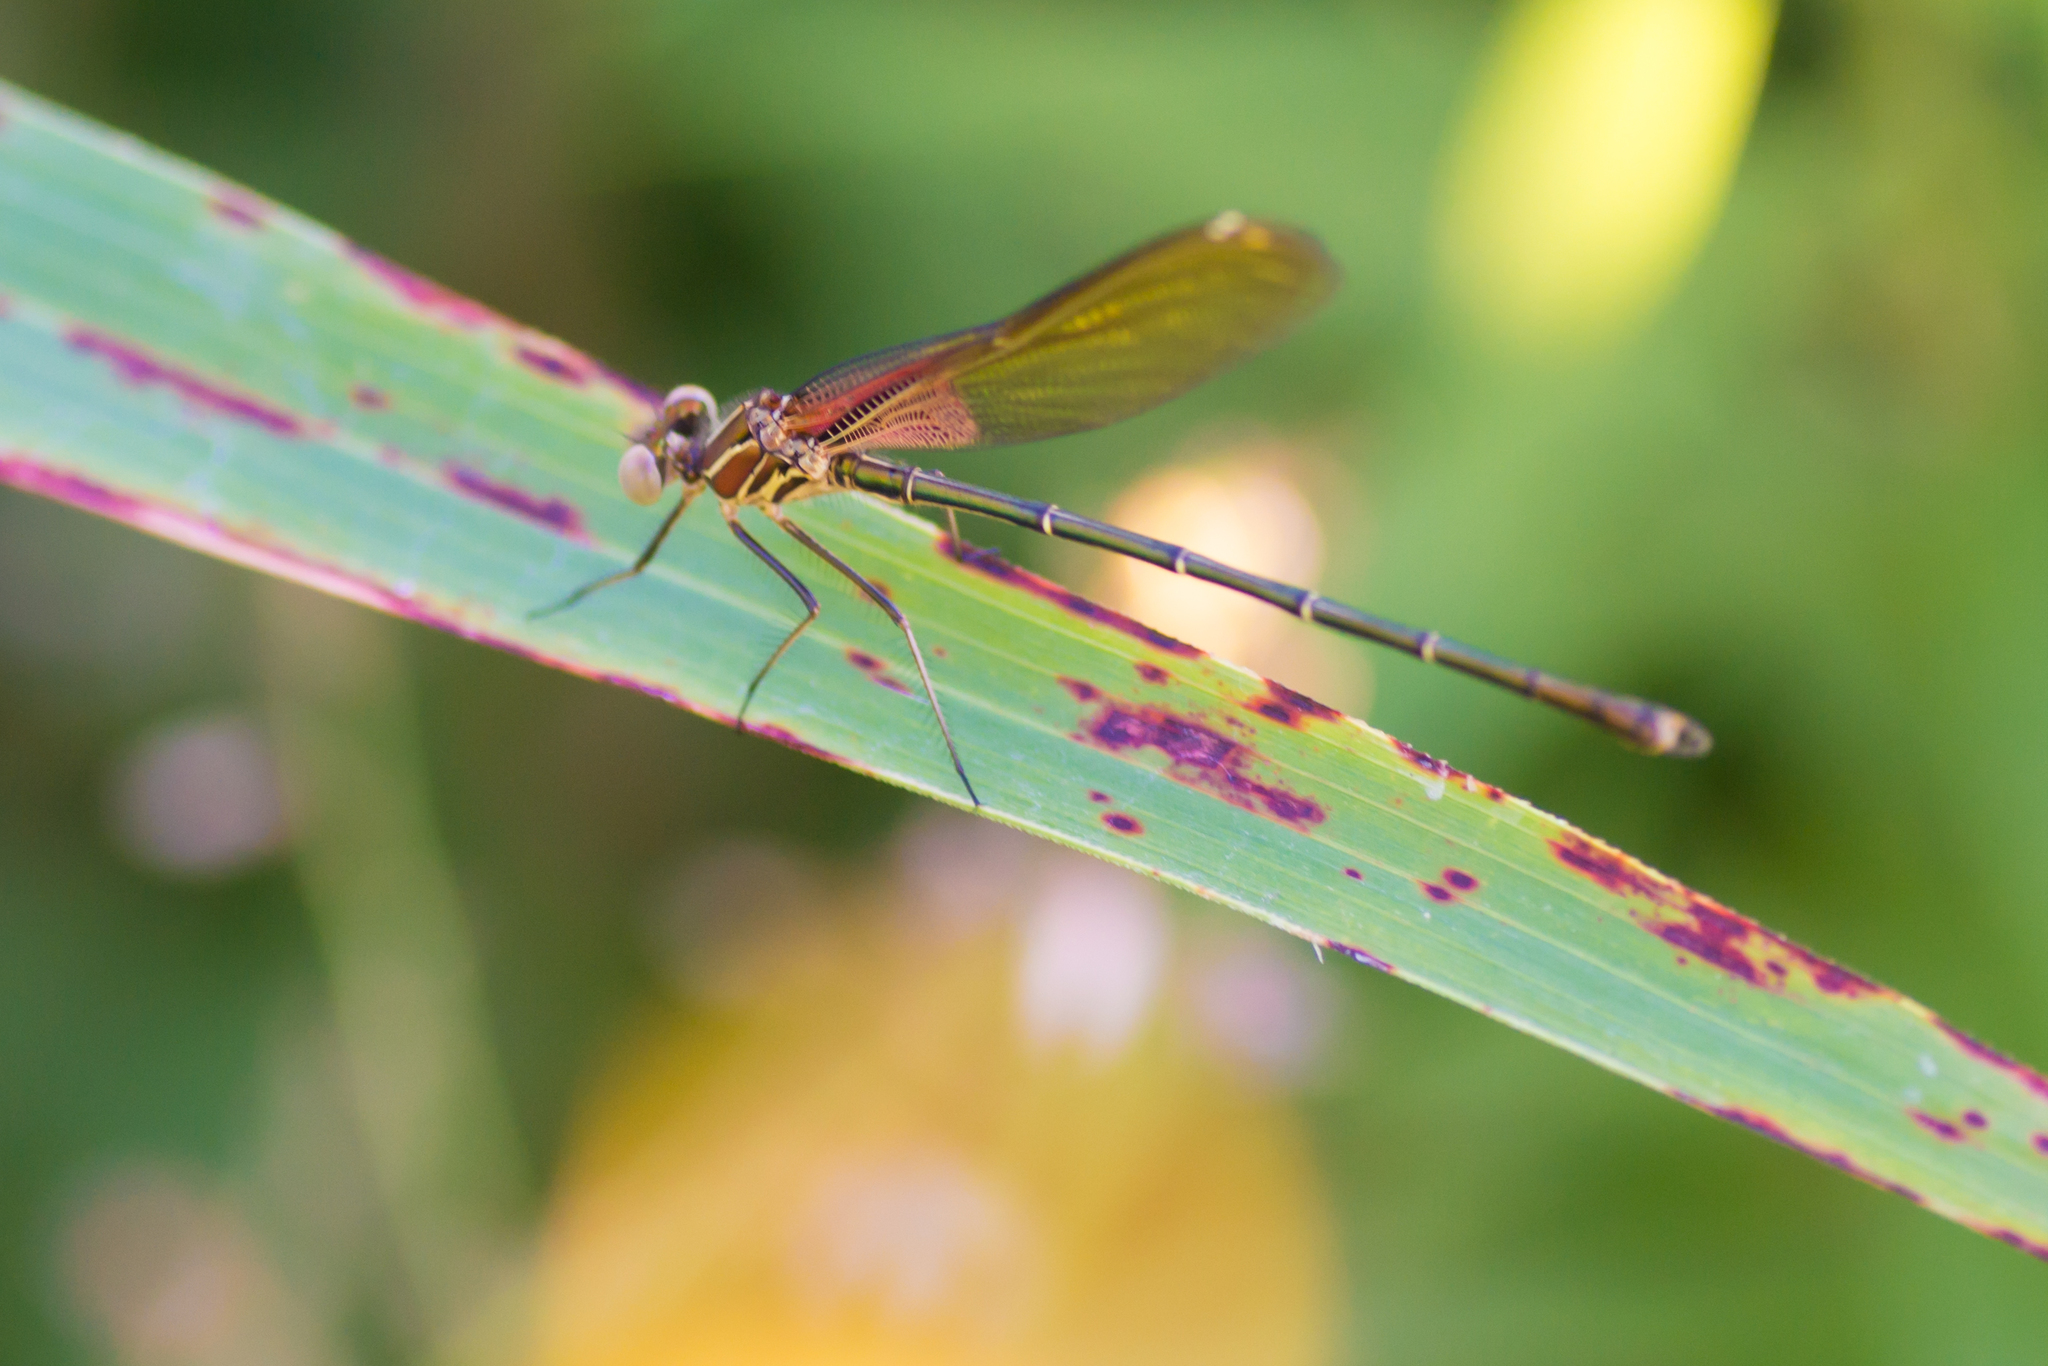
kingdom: Animalia
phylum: Arthropoda
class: Insecta
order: Odonata
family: Calopterygidae
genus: Hetaerina
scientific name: Hetaerina americana
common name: American rubyspot
